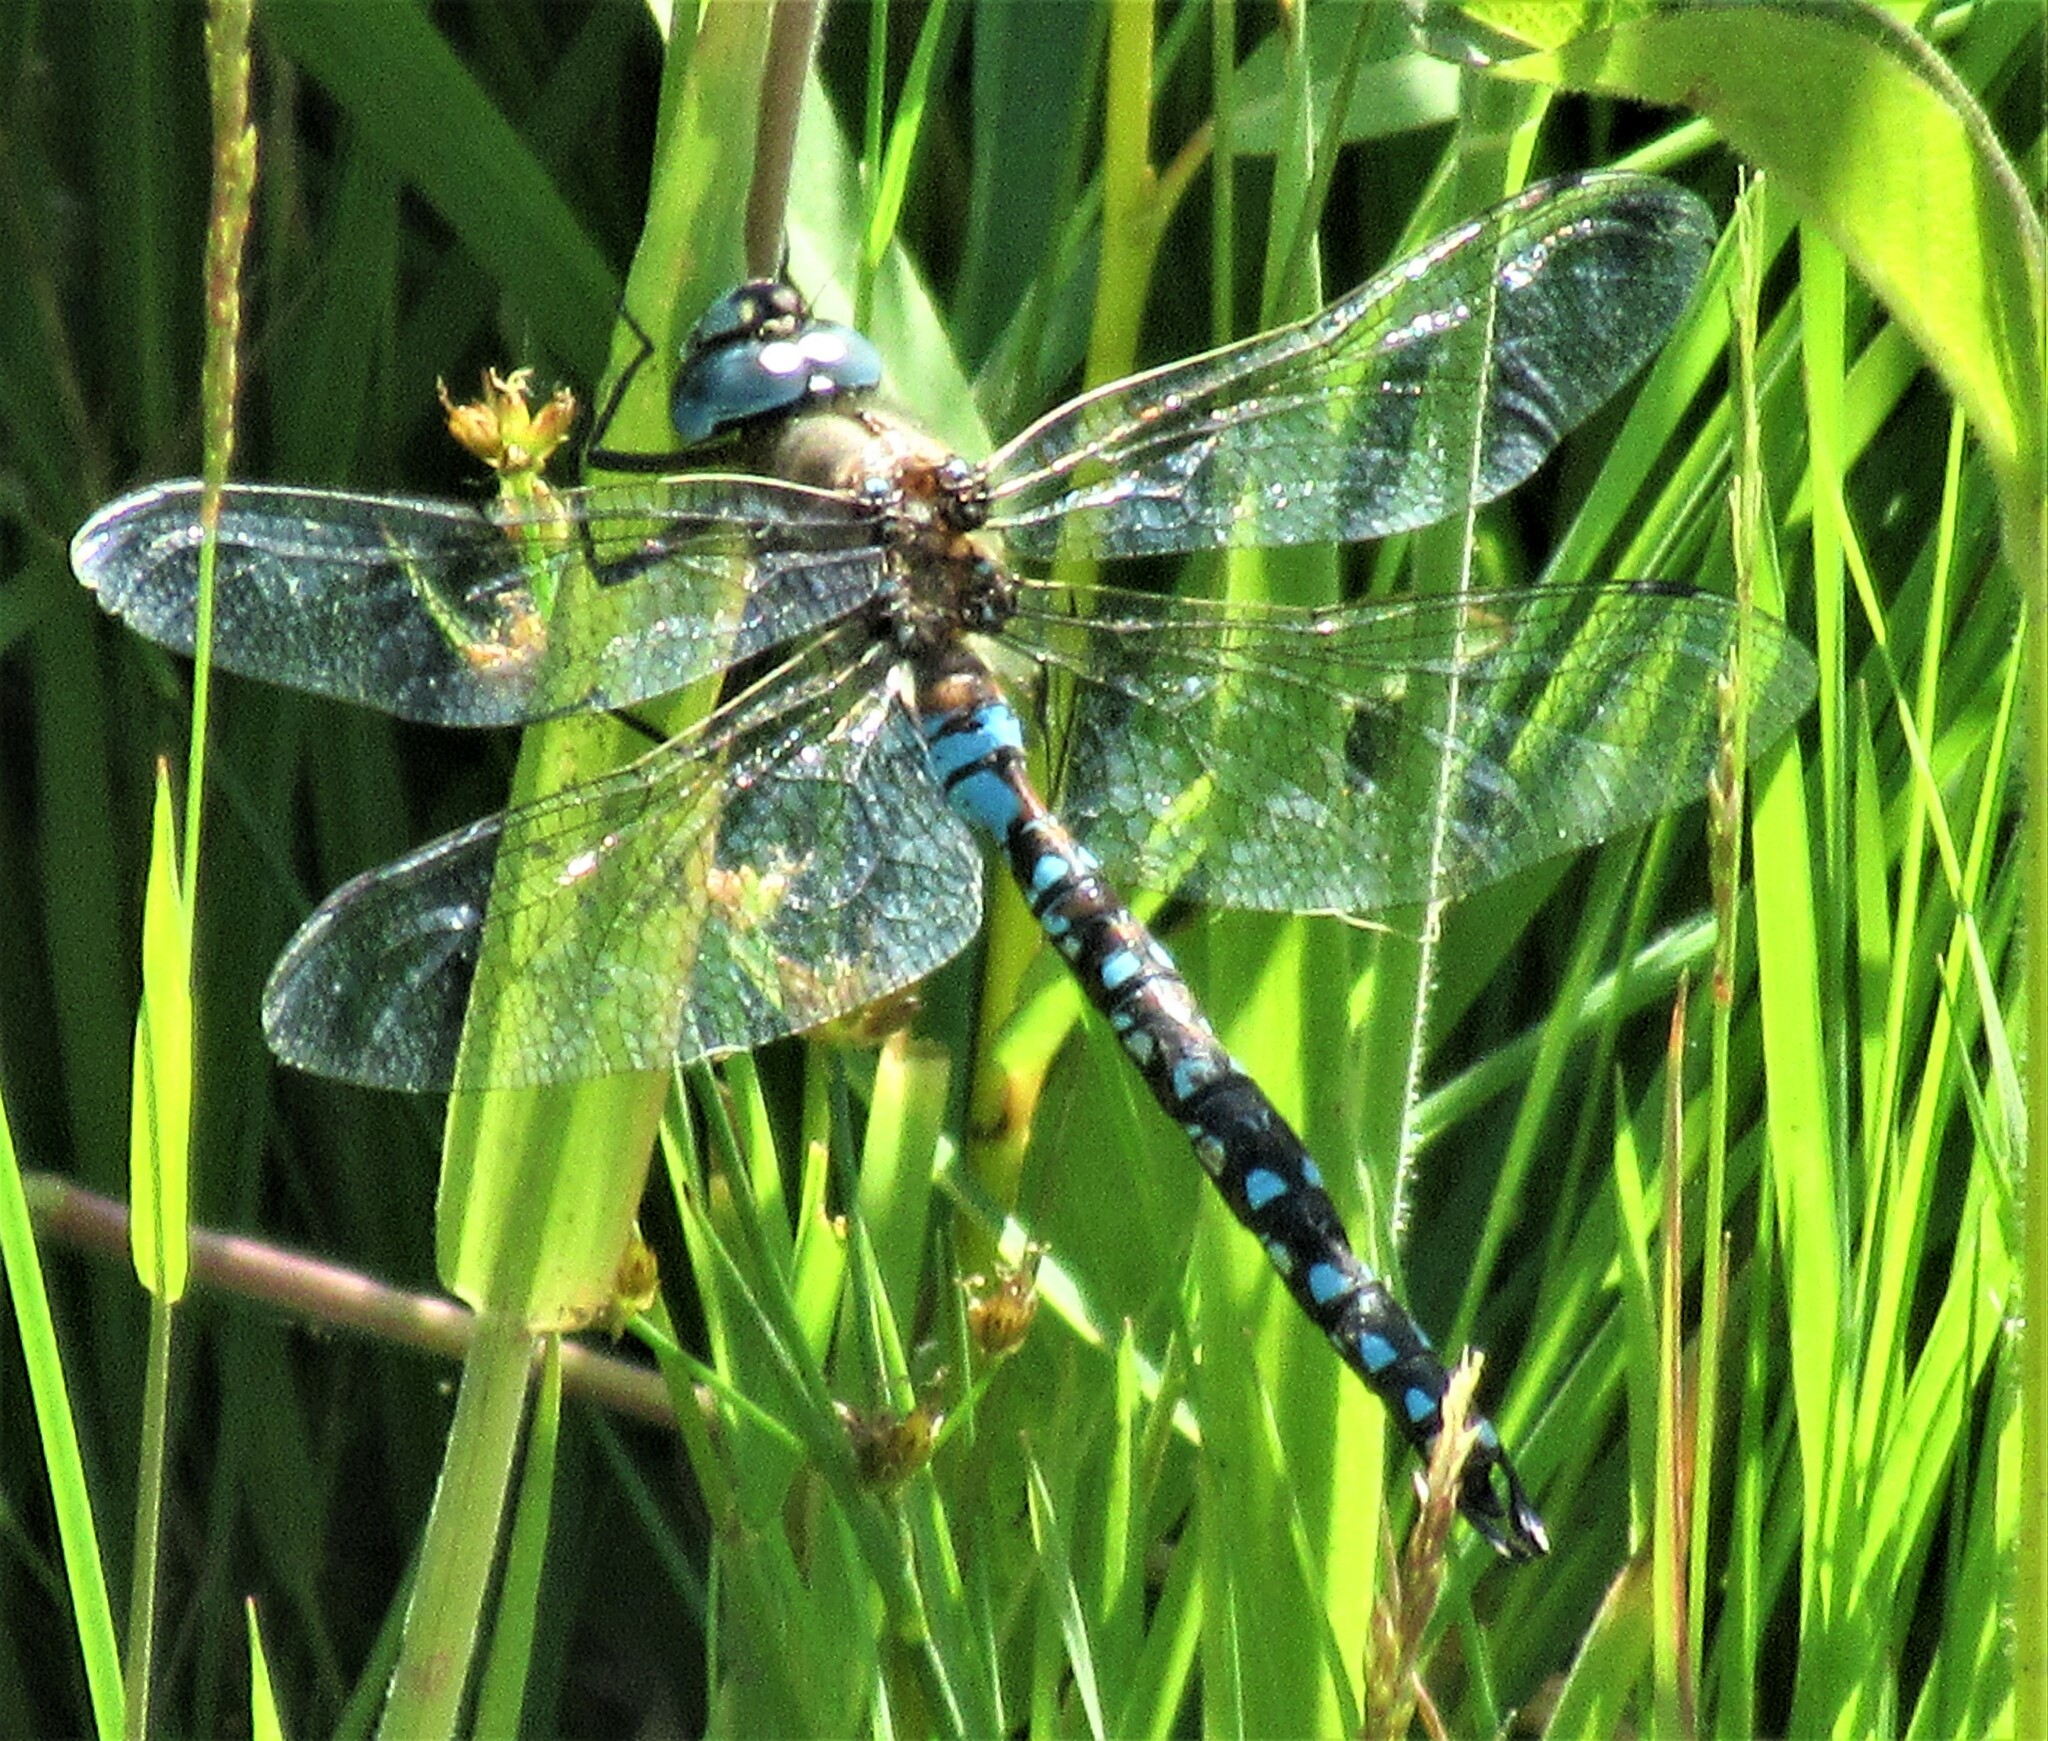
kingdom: Animalia
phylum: Arthropoda
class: Insecta
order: Odonata
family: Aeshnidae
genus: Rhionaeschna
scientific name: Rhionaeschna californica
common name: California darner
